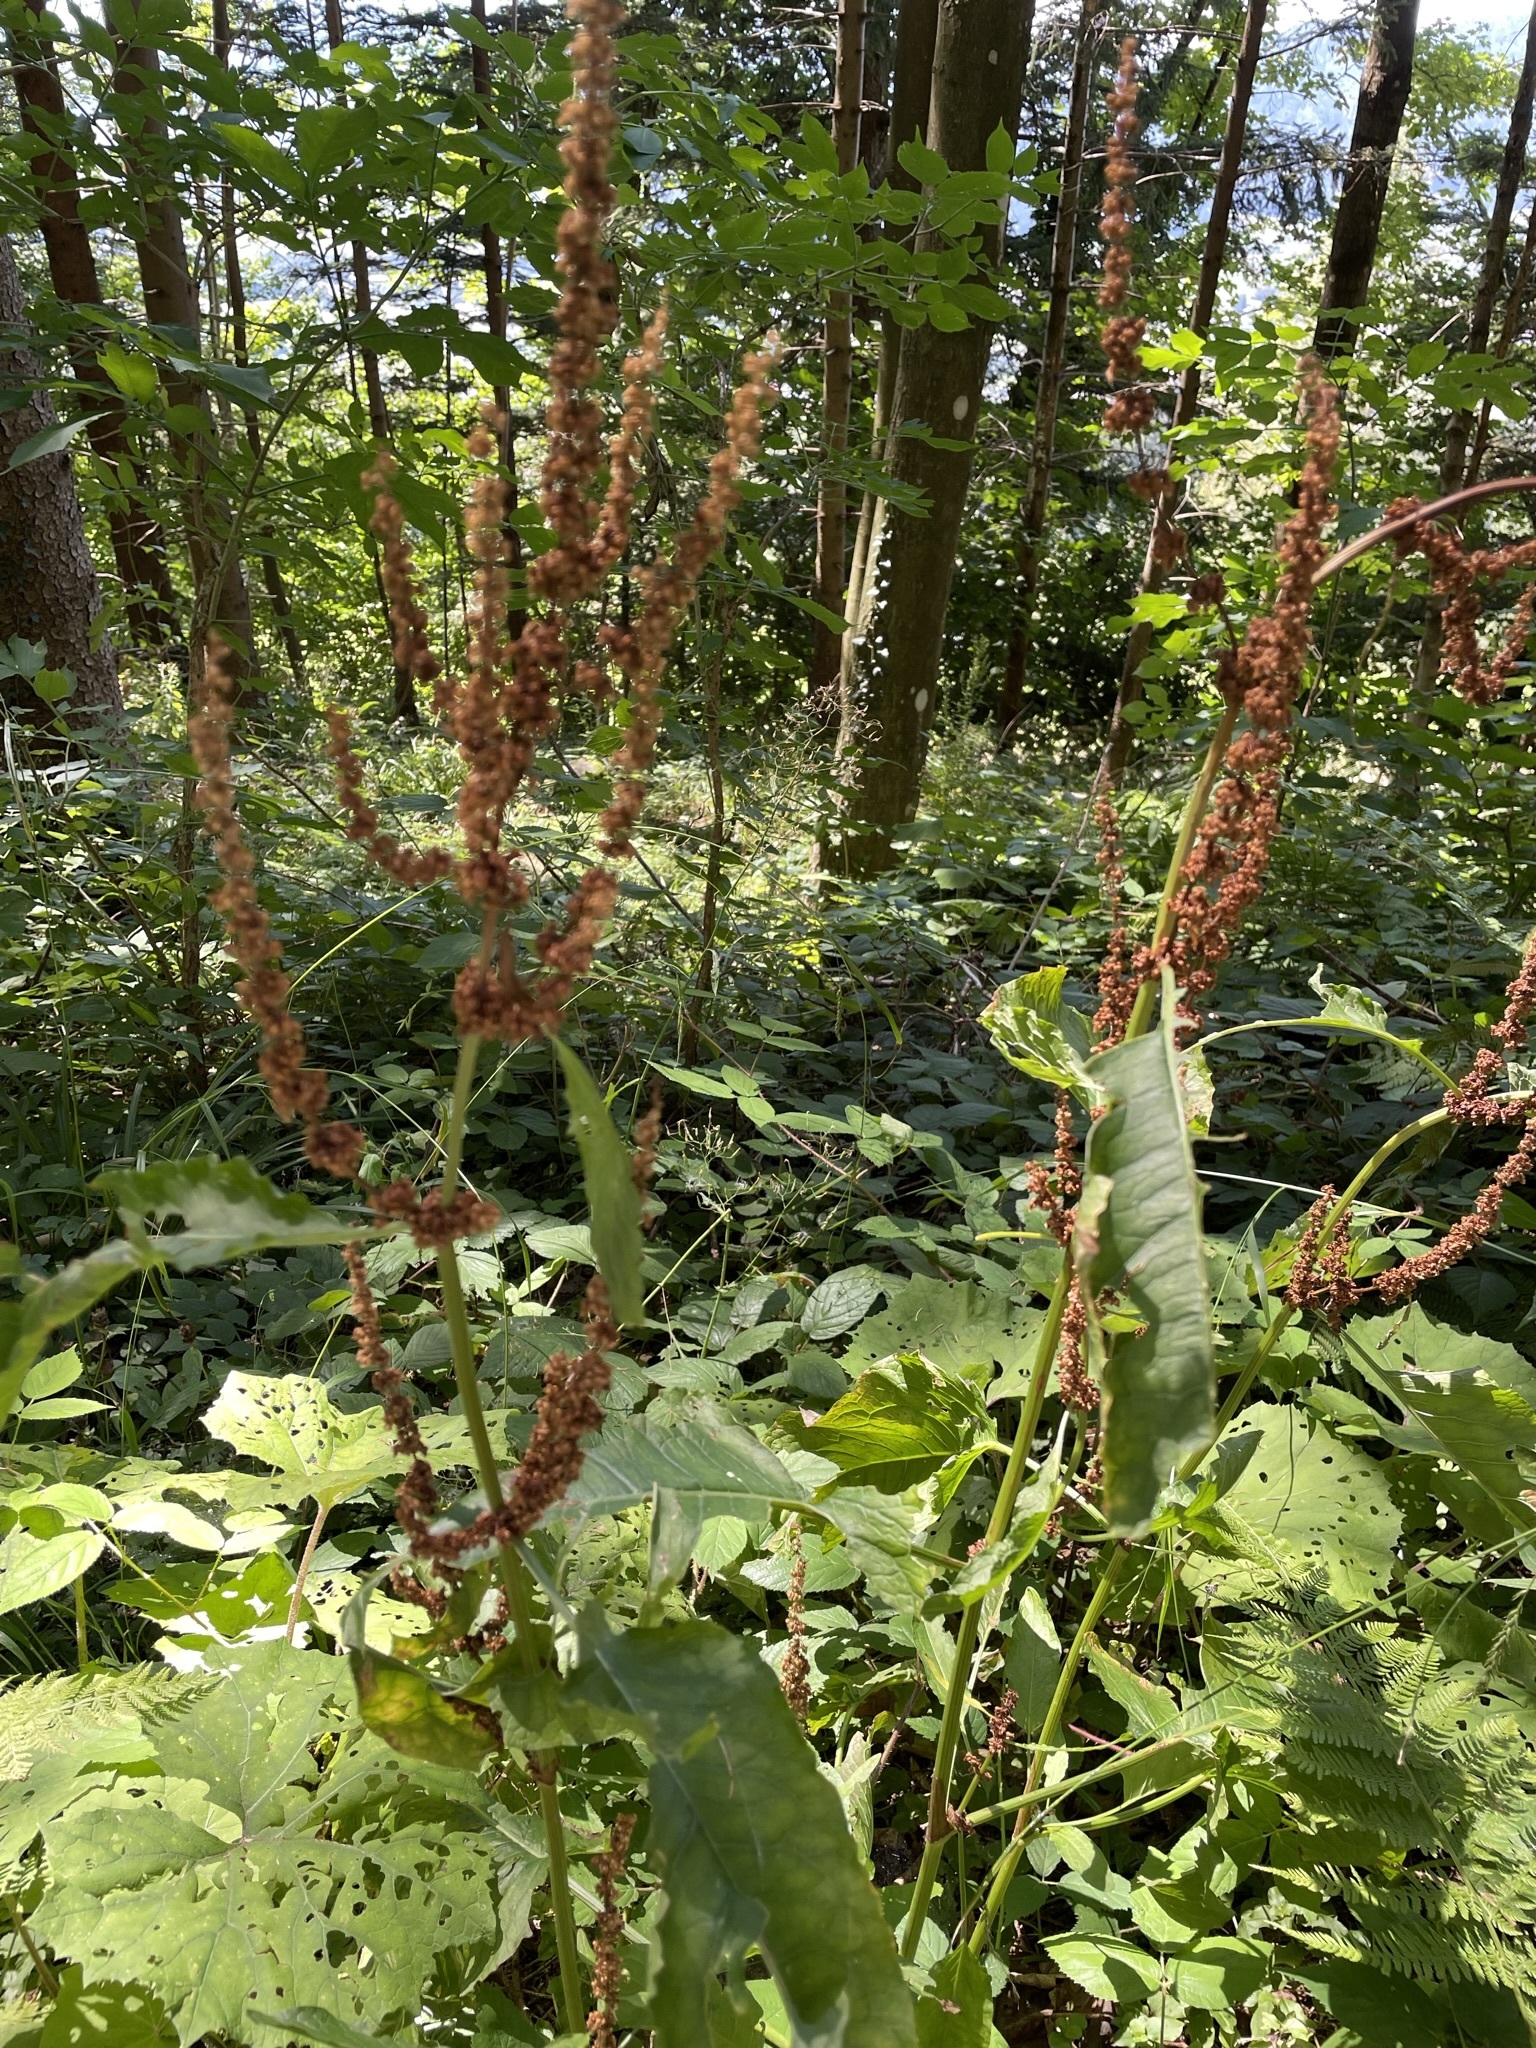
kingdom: Plantae
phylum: Tracheophyta
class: Magnoliopsida
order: Caryophyllales
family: Polygonaceae
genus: Rumex
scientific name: Rumex obtusifolius
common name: Bitter dock
